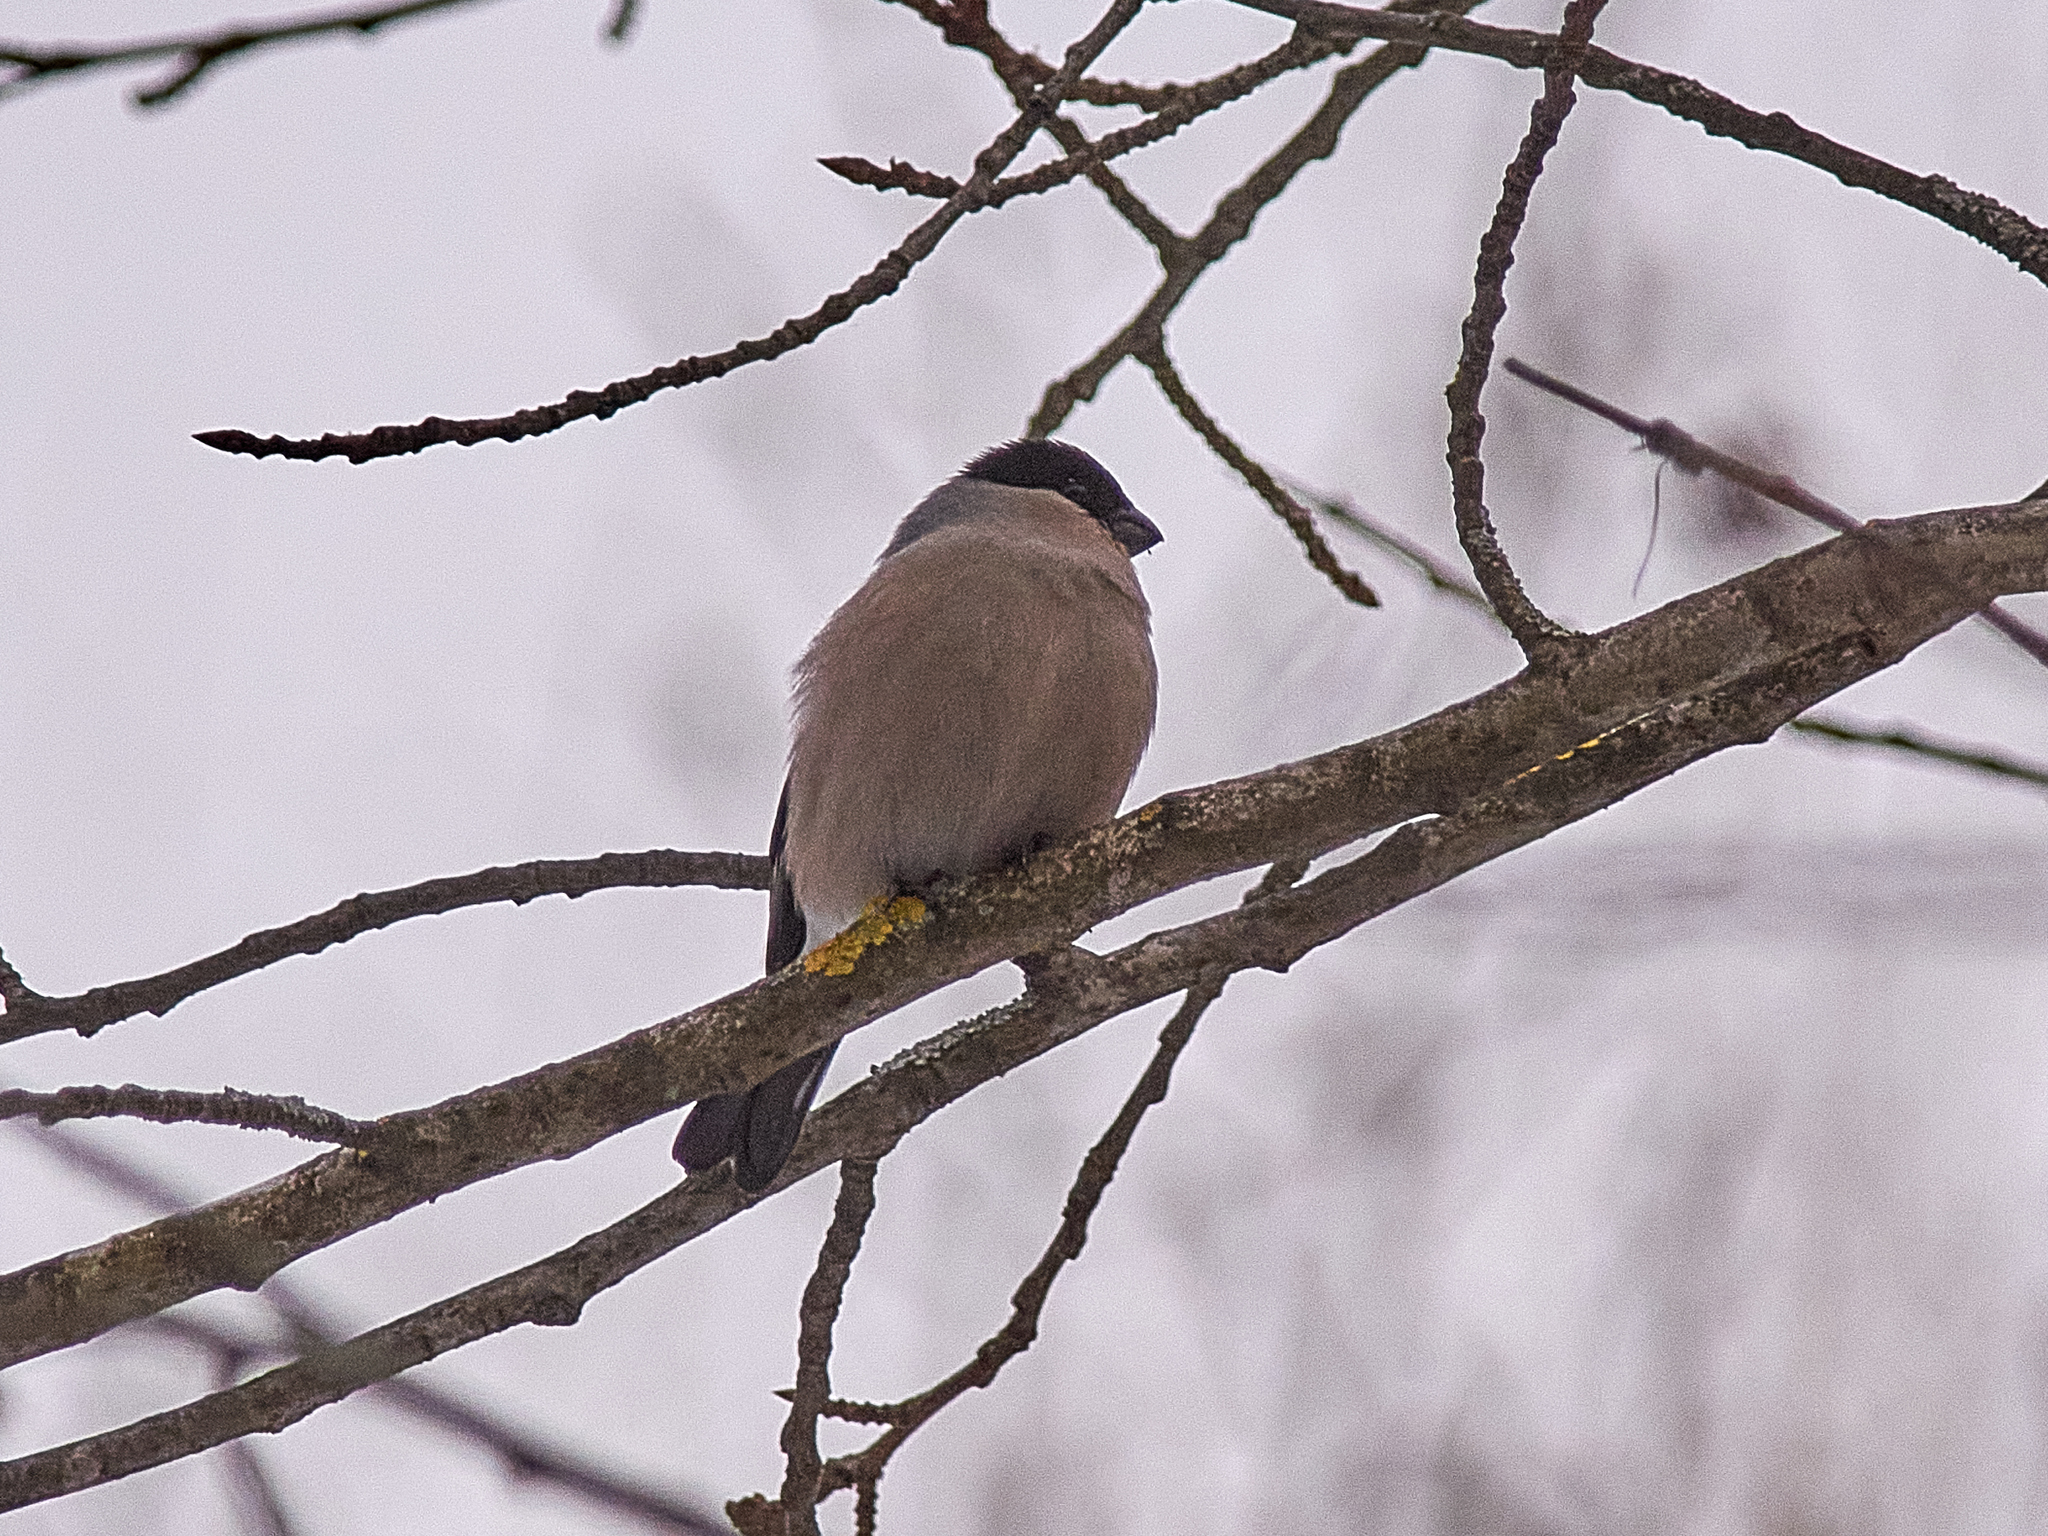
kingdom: Animalia
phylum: Chordata
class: Aves
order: Passeriformes
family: Fringillidae
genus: Pyrrhula
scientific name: Pyrrhula pyrrhula
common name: Eurasian bullfinch
